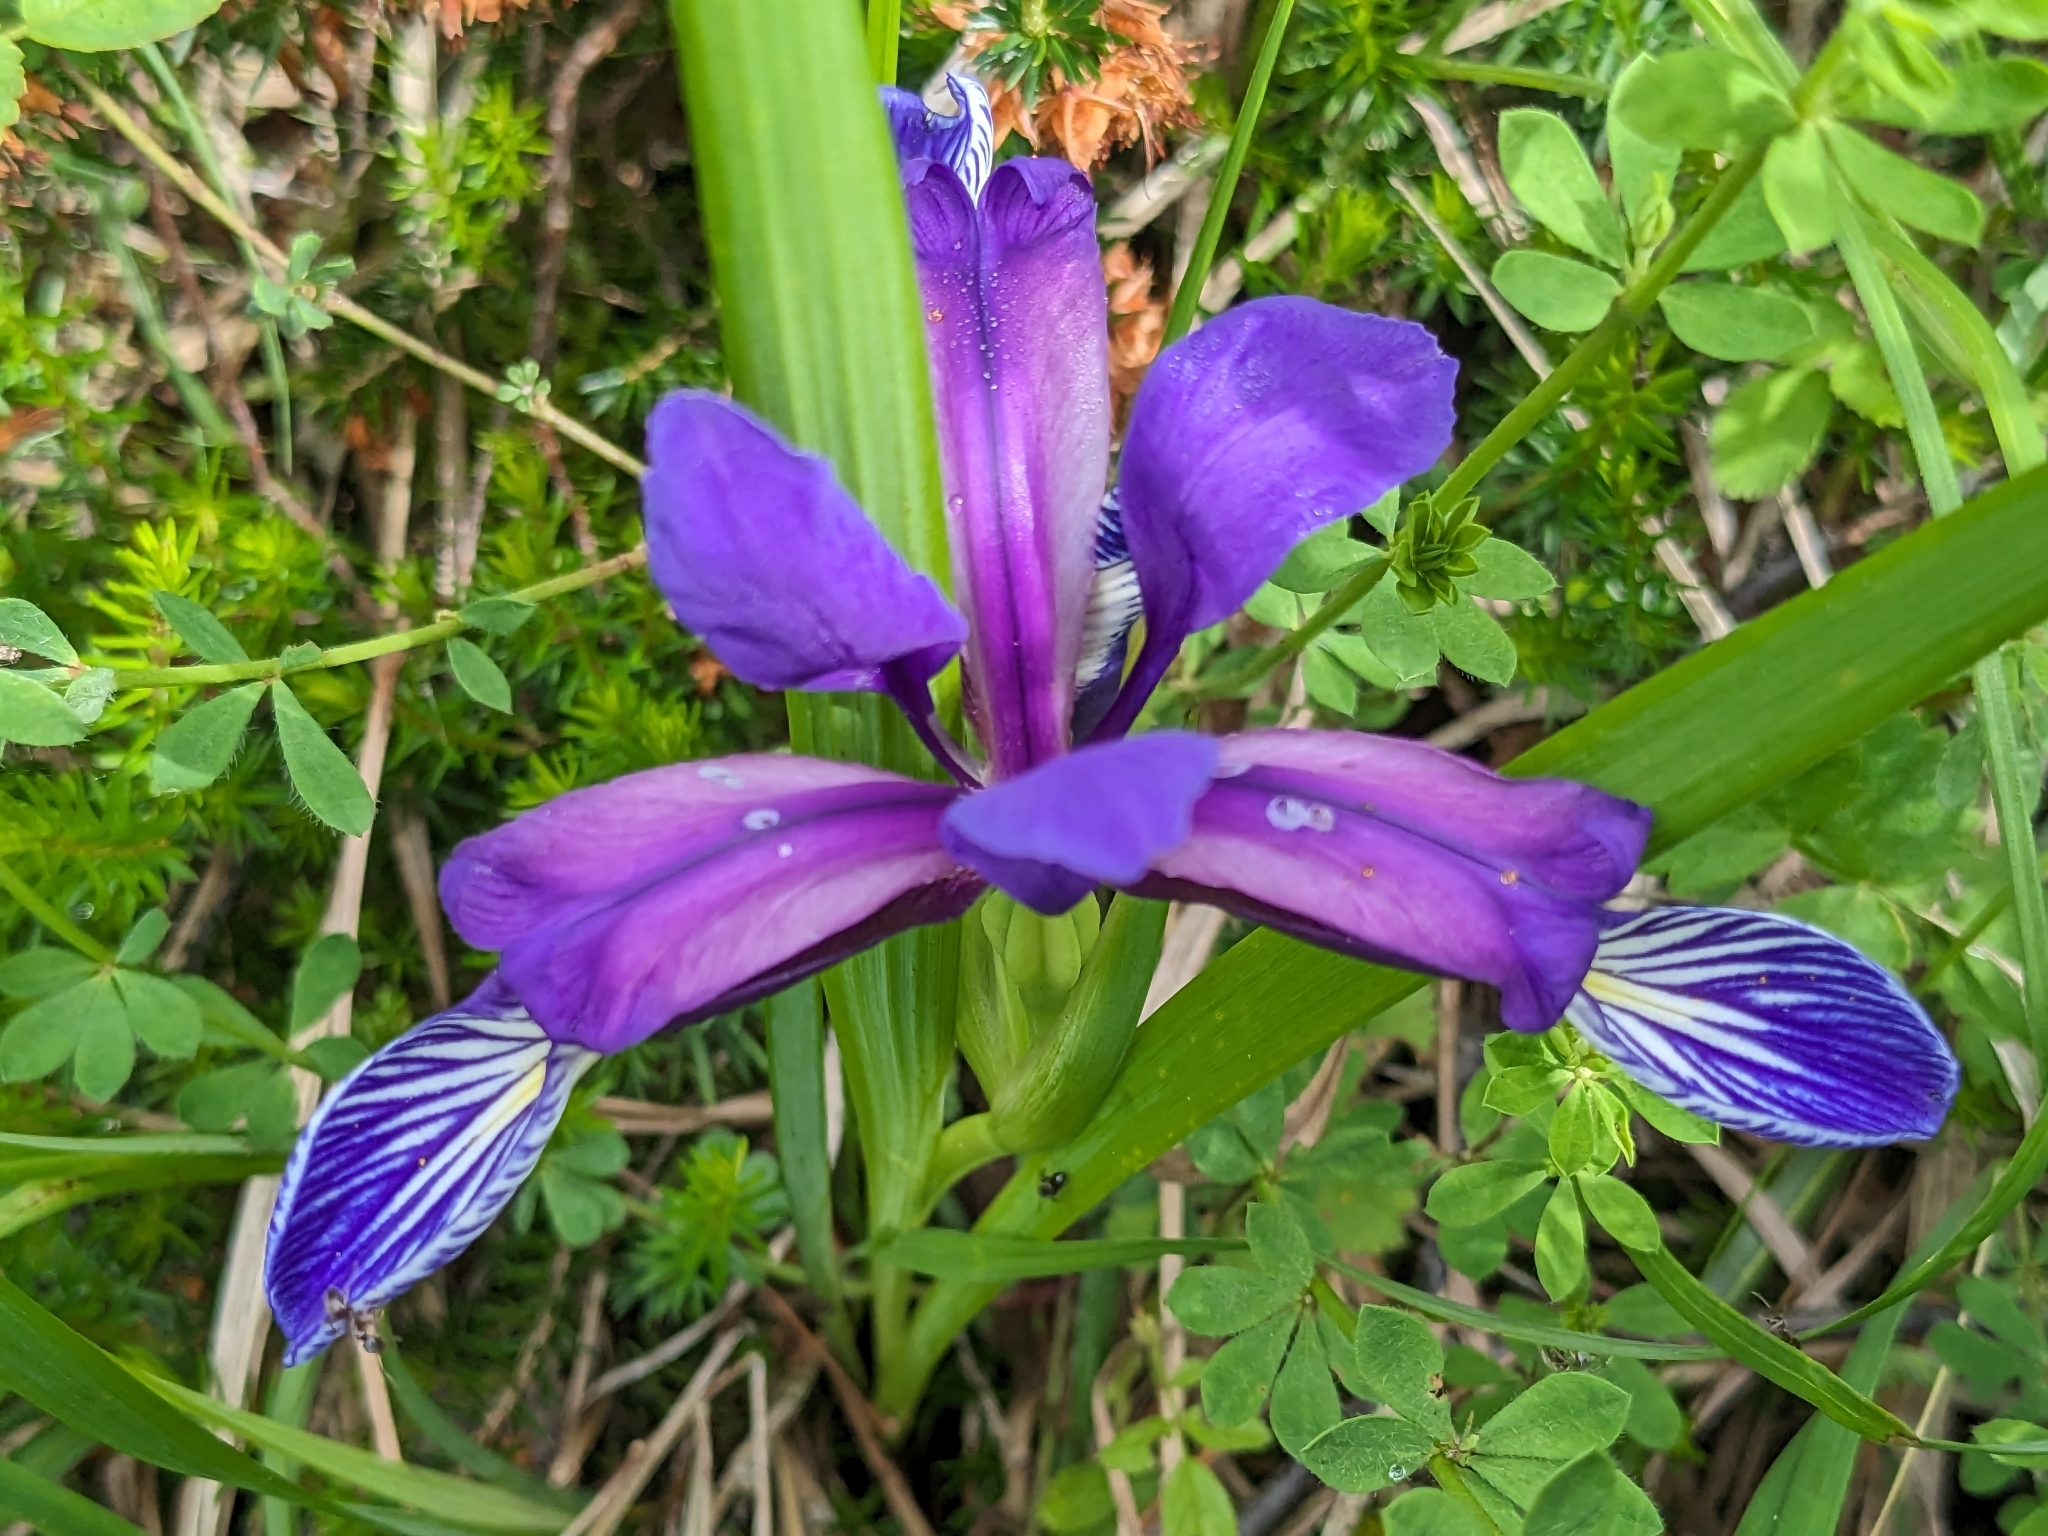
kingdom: Plantae
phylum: Tracheophyta
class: Liliopsida
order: Asparagales
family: Iridaceae
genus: Iris
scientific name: Iris graminea
